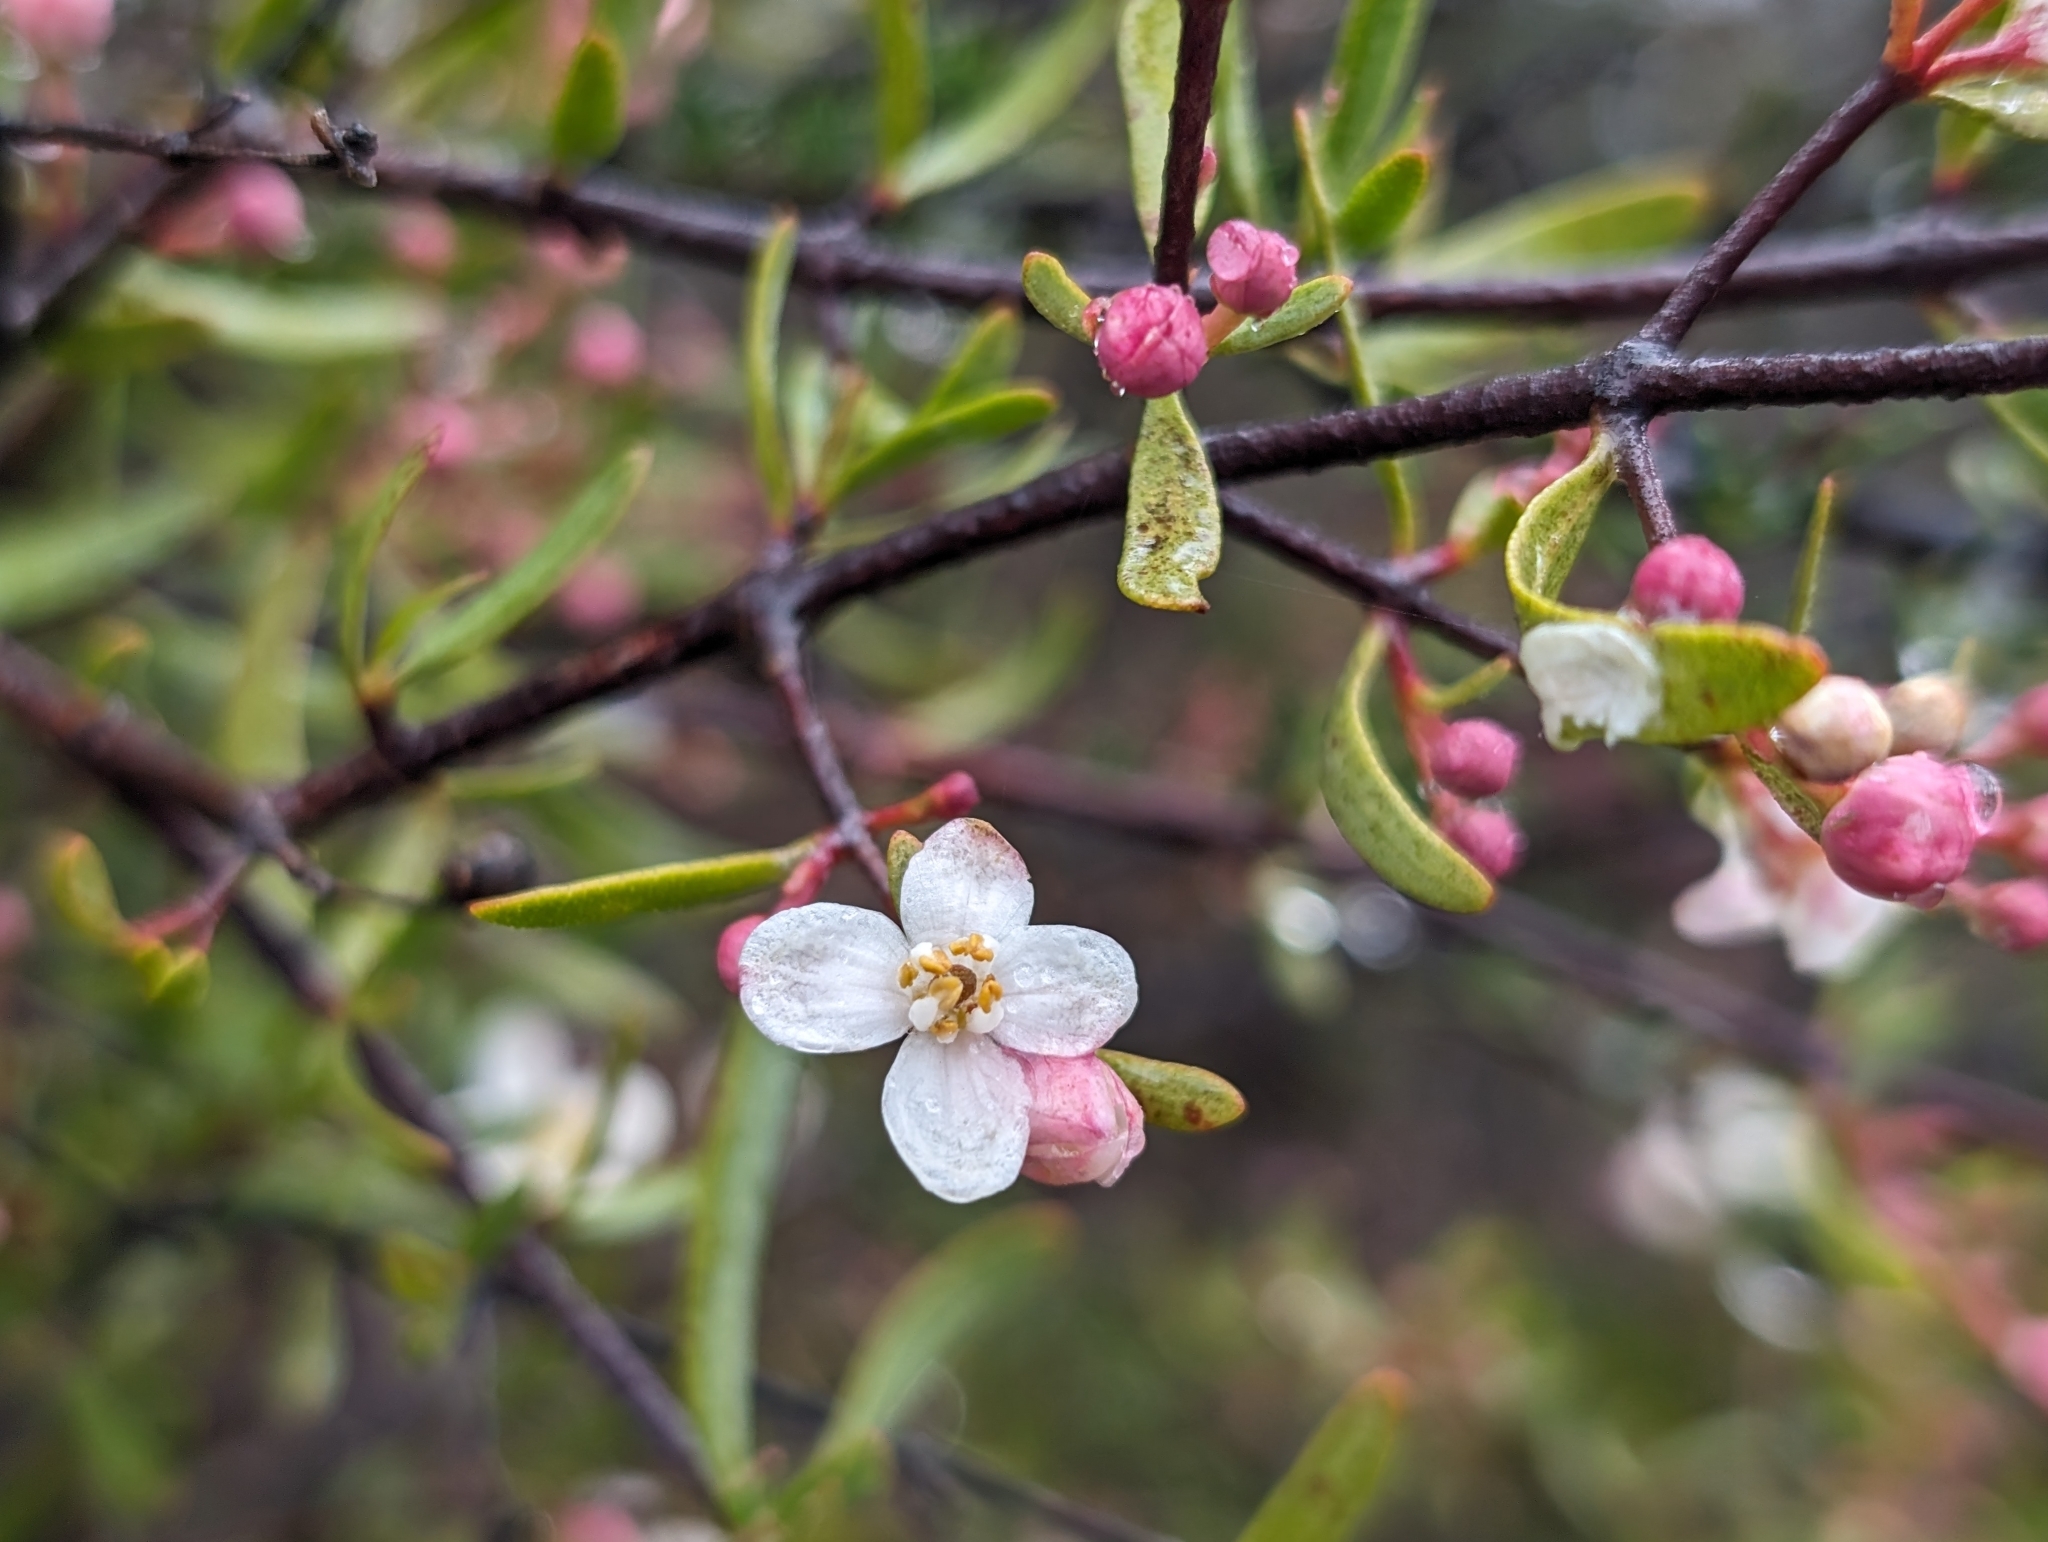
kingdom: Plantae
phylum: Tracheophyta
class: Magnoliopsida
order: Sapindales
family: Rutaceae
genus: Cneoridium
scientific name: Cneoridium dumosum
